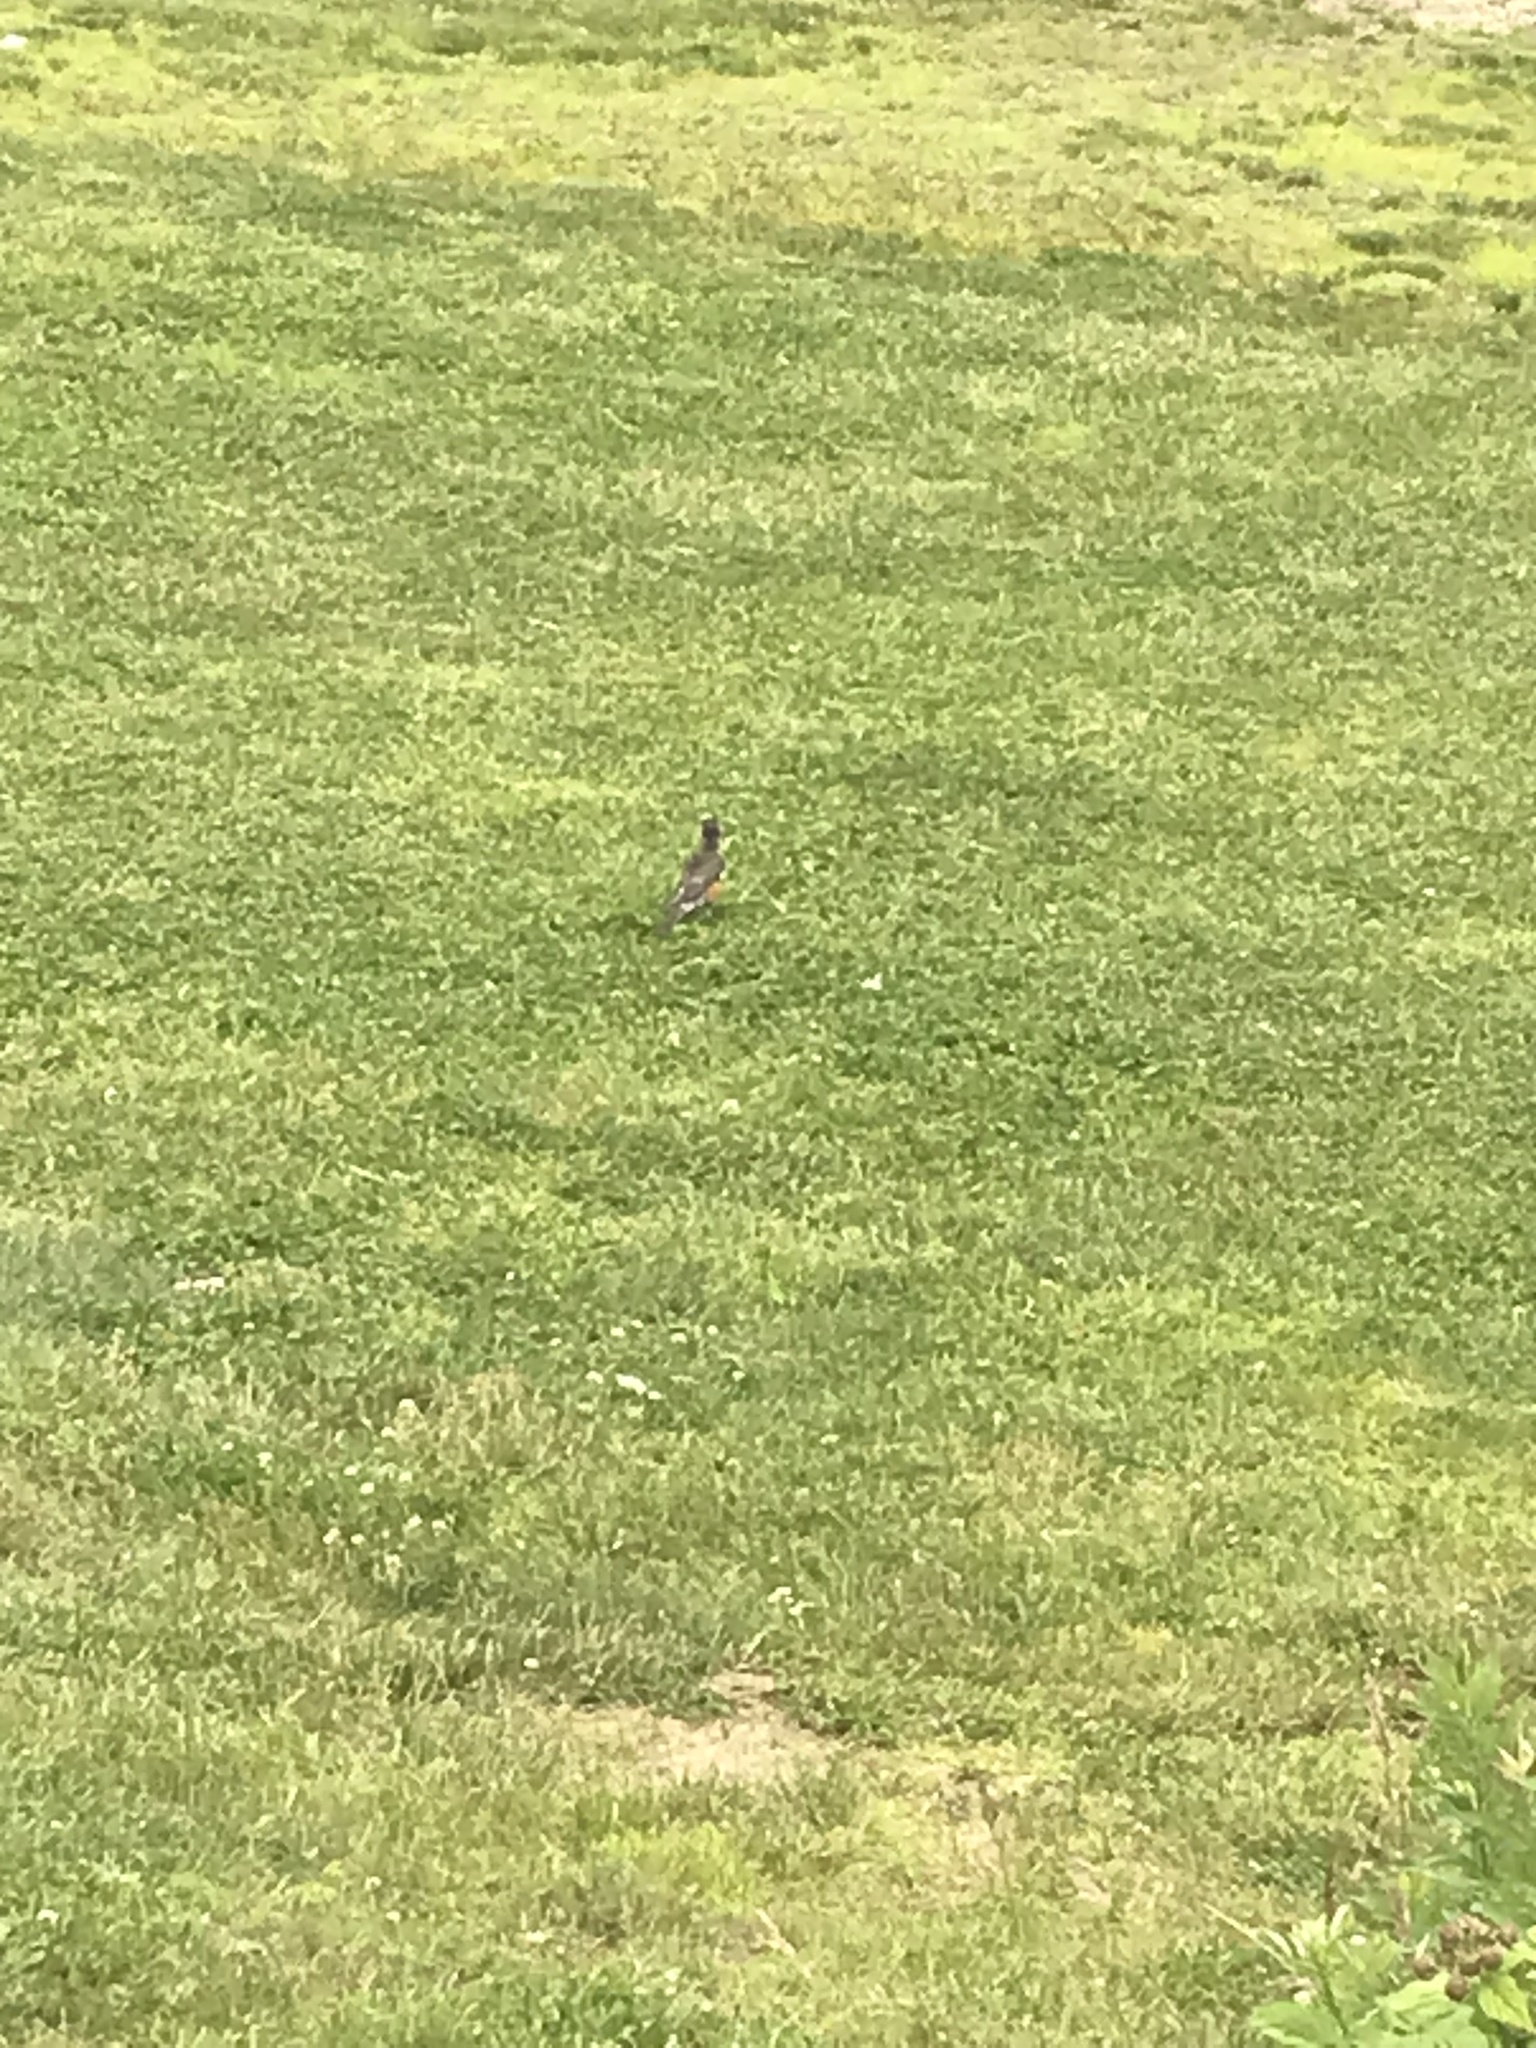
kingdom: Animalia
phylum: Chordata
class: Aves
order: Passeriformes
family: Turdidae
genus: Turdus
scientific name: Turdus migratorius
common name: American robin
